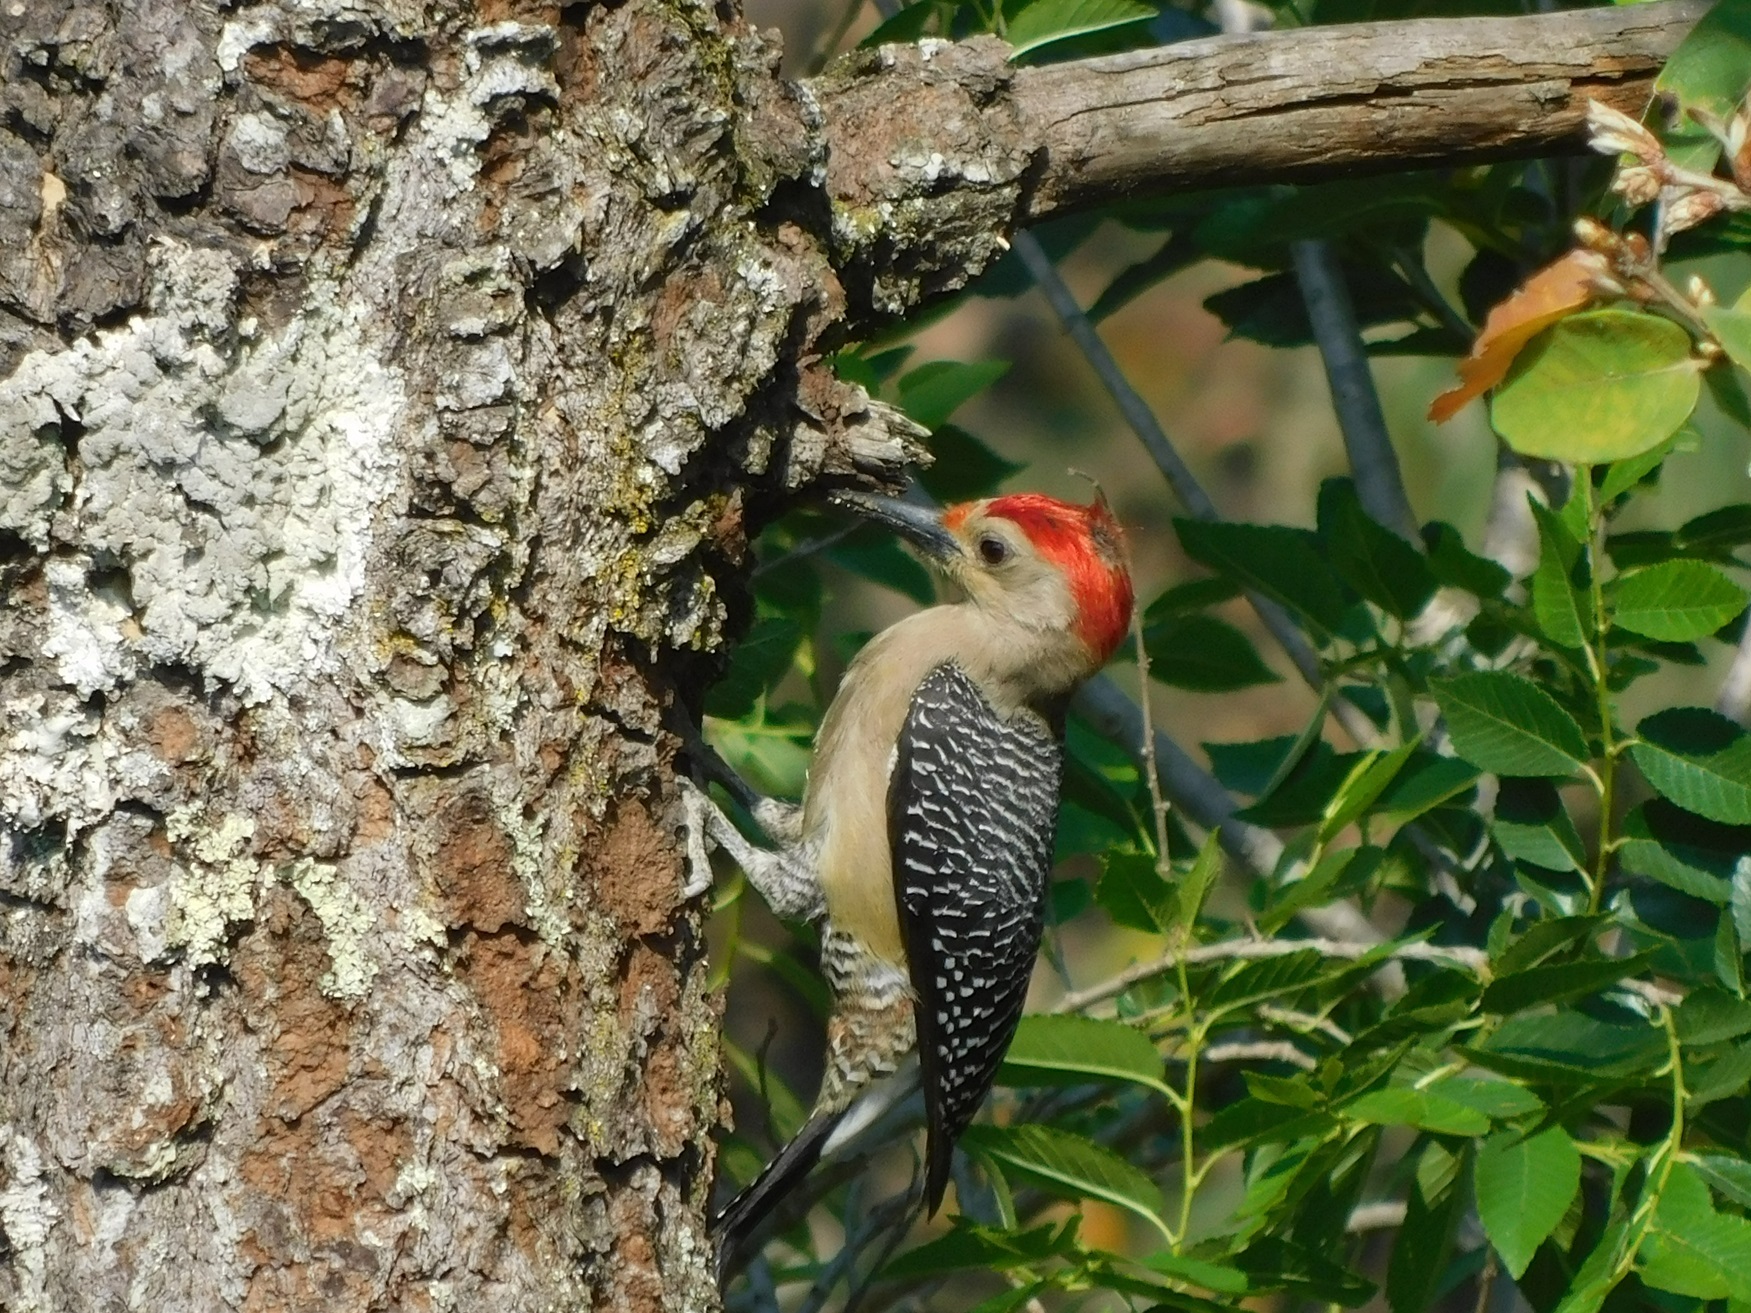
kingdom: Animalia
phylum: Chordata
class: Aves
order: Piciformes
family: Picidae
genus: Melanerpes
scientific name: Melanerpes aurifrons
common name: Golden-fronted woodpecker
